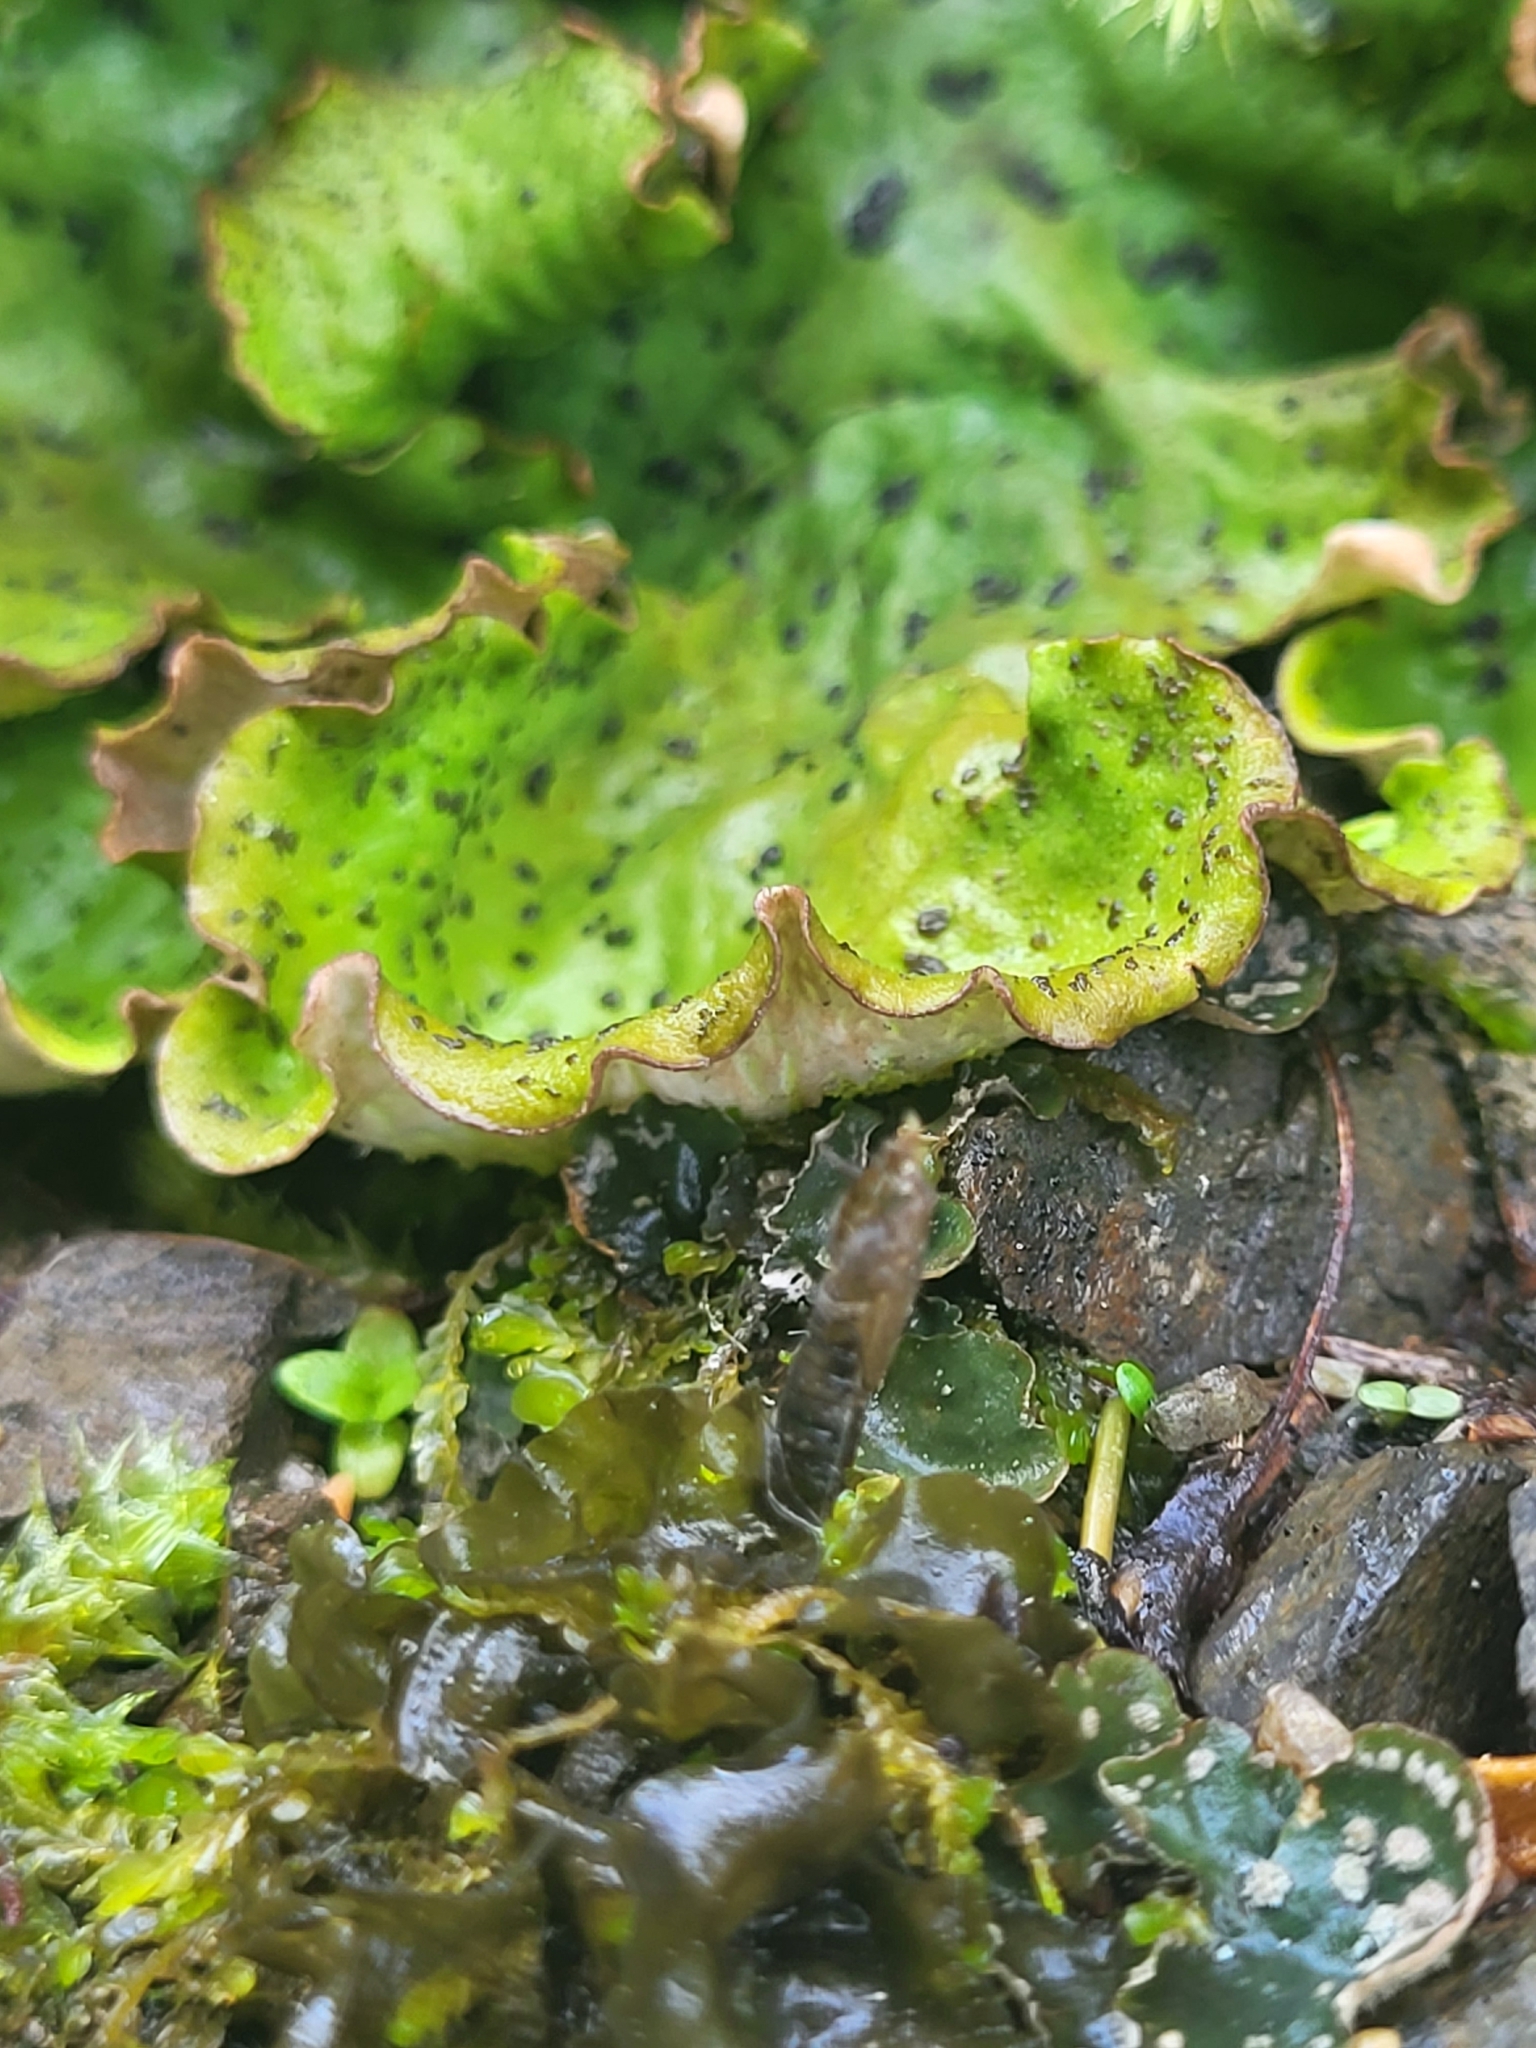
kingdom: Fungi
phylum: Ascomycota
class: Lecanoromycetes
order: Peltigerales
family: Peltigeraceae
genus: Peltigera
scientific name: Peltigera aphthosa
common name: Common freckle pelt lichen
